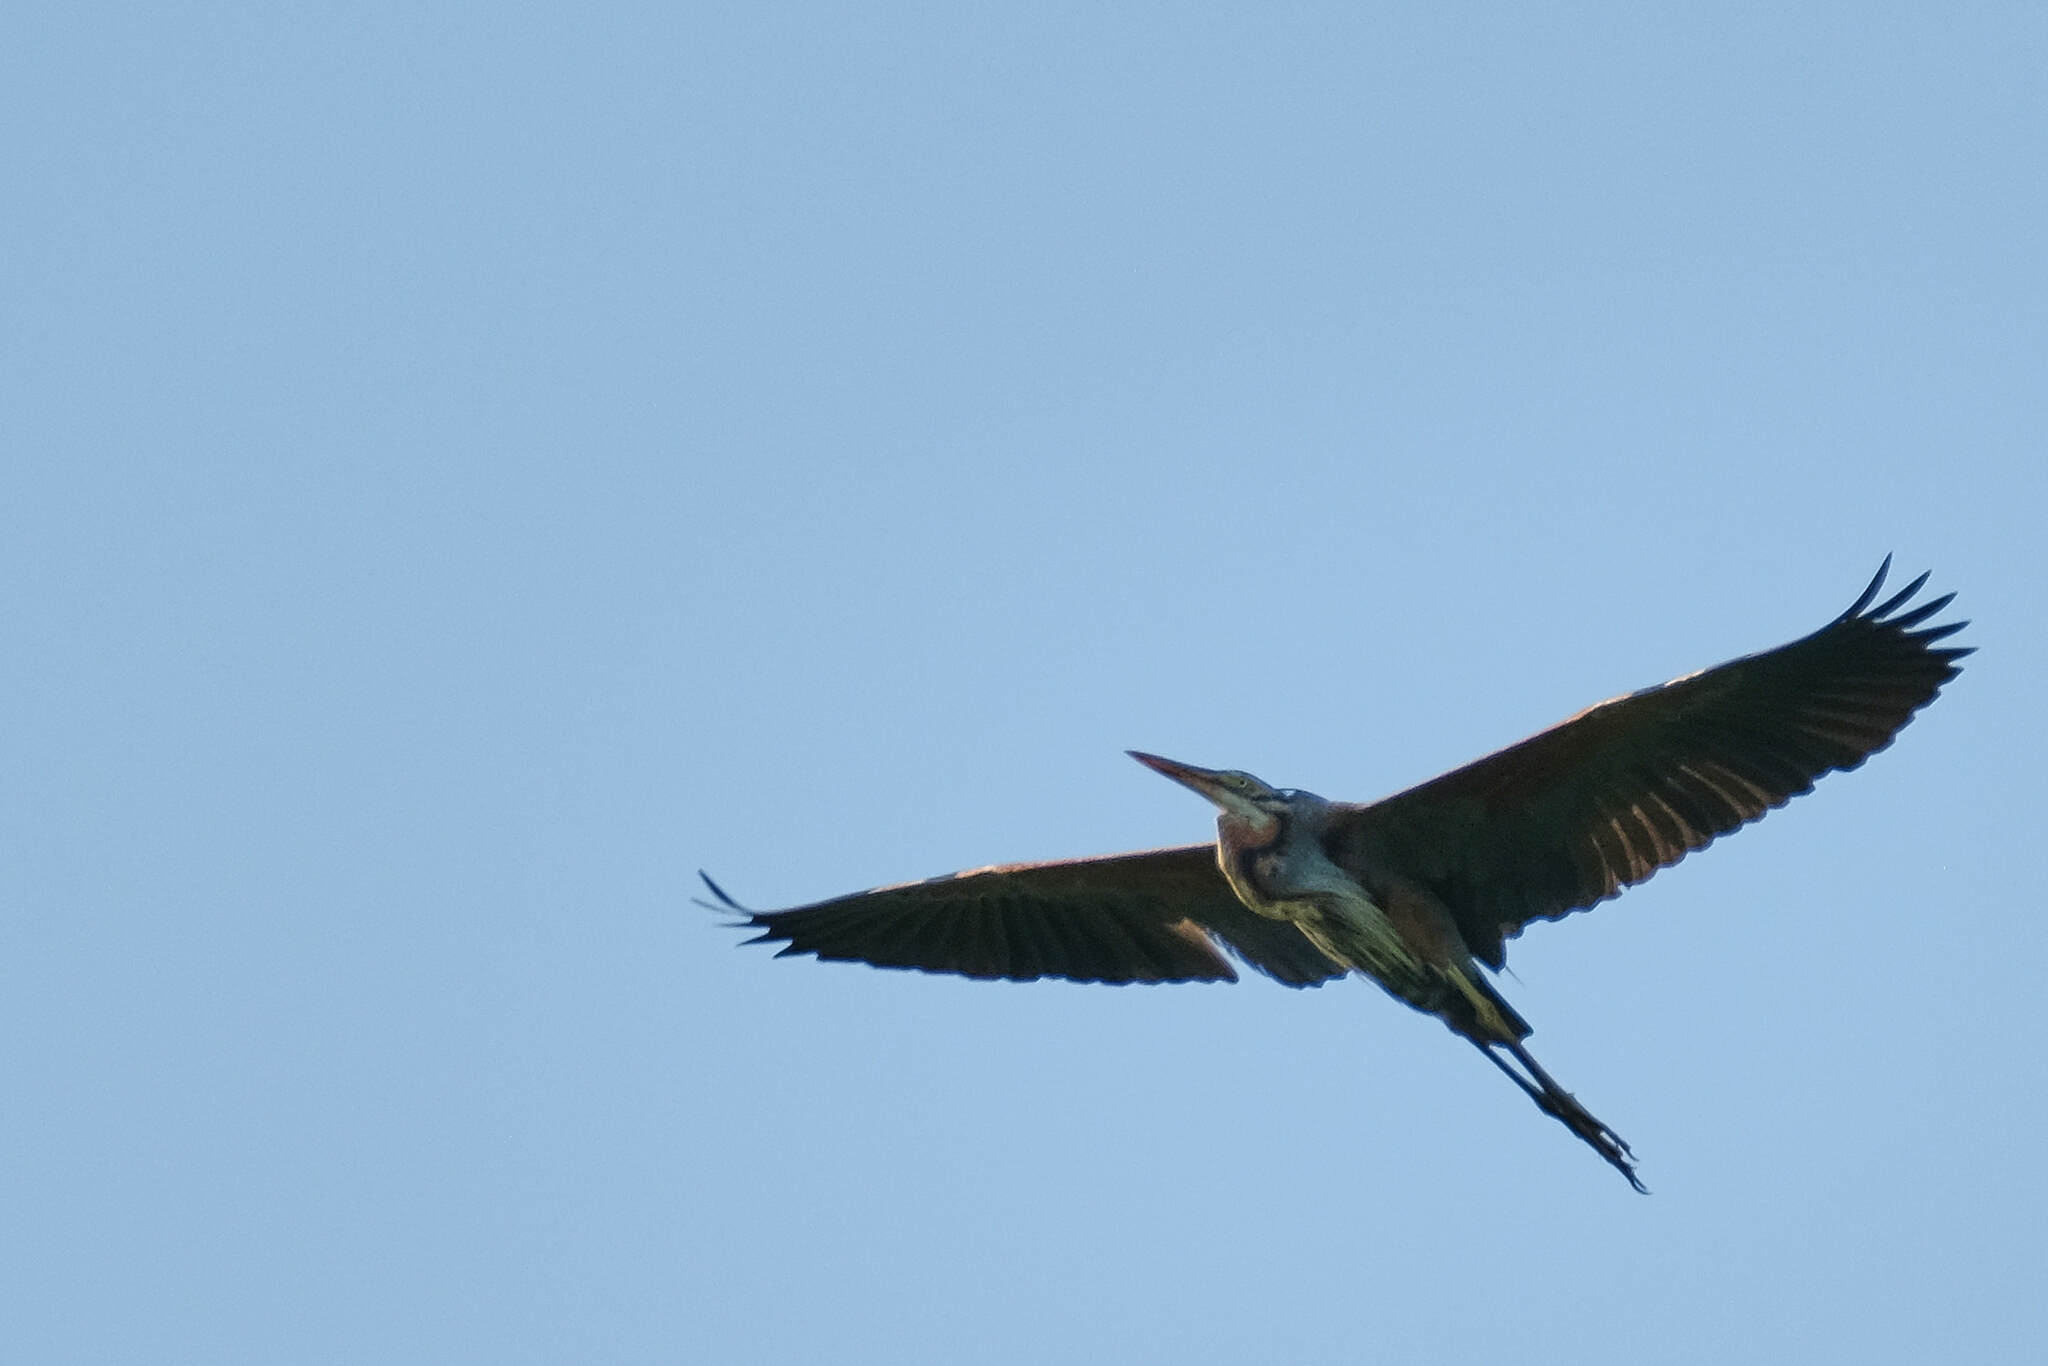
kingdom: Animalia
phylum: Chordata
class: Aves
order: Pelecaniformes
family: Ardeidae
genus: Ardea
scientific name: Ardea purpurea
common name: Purple heron
